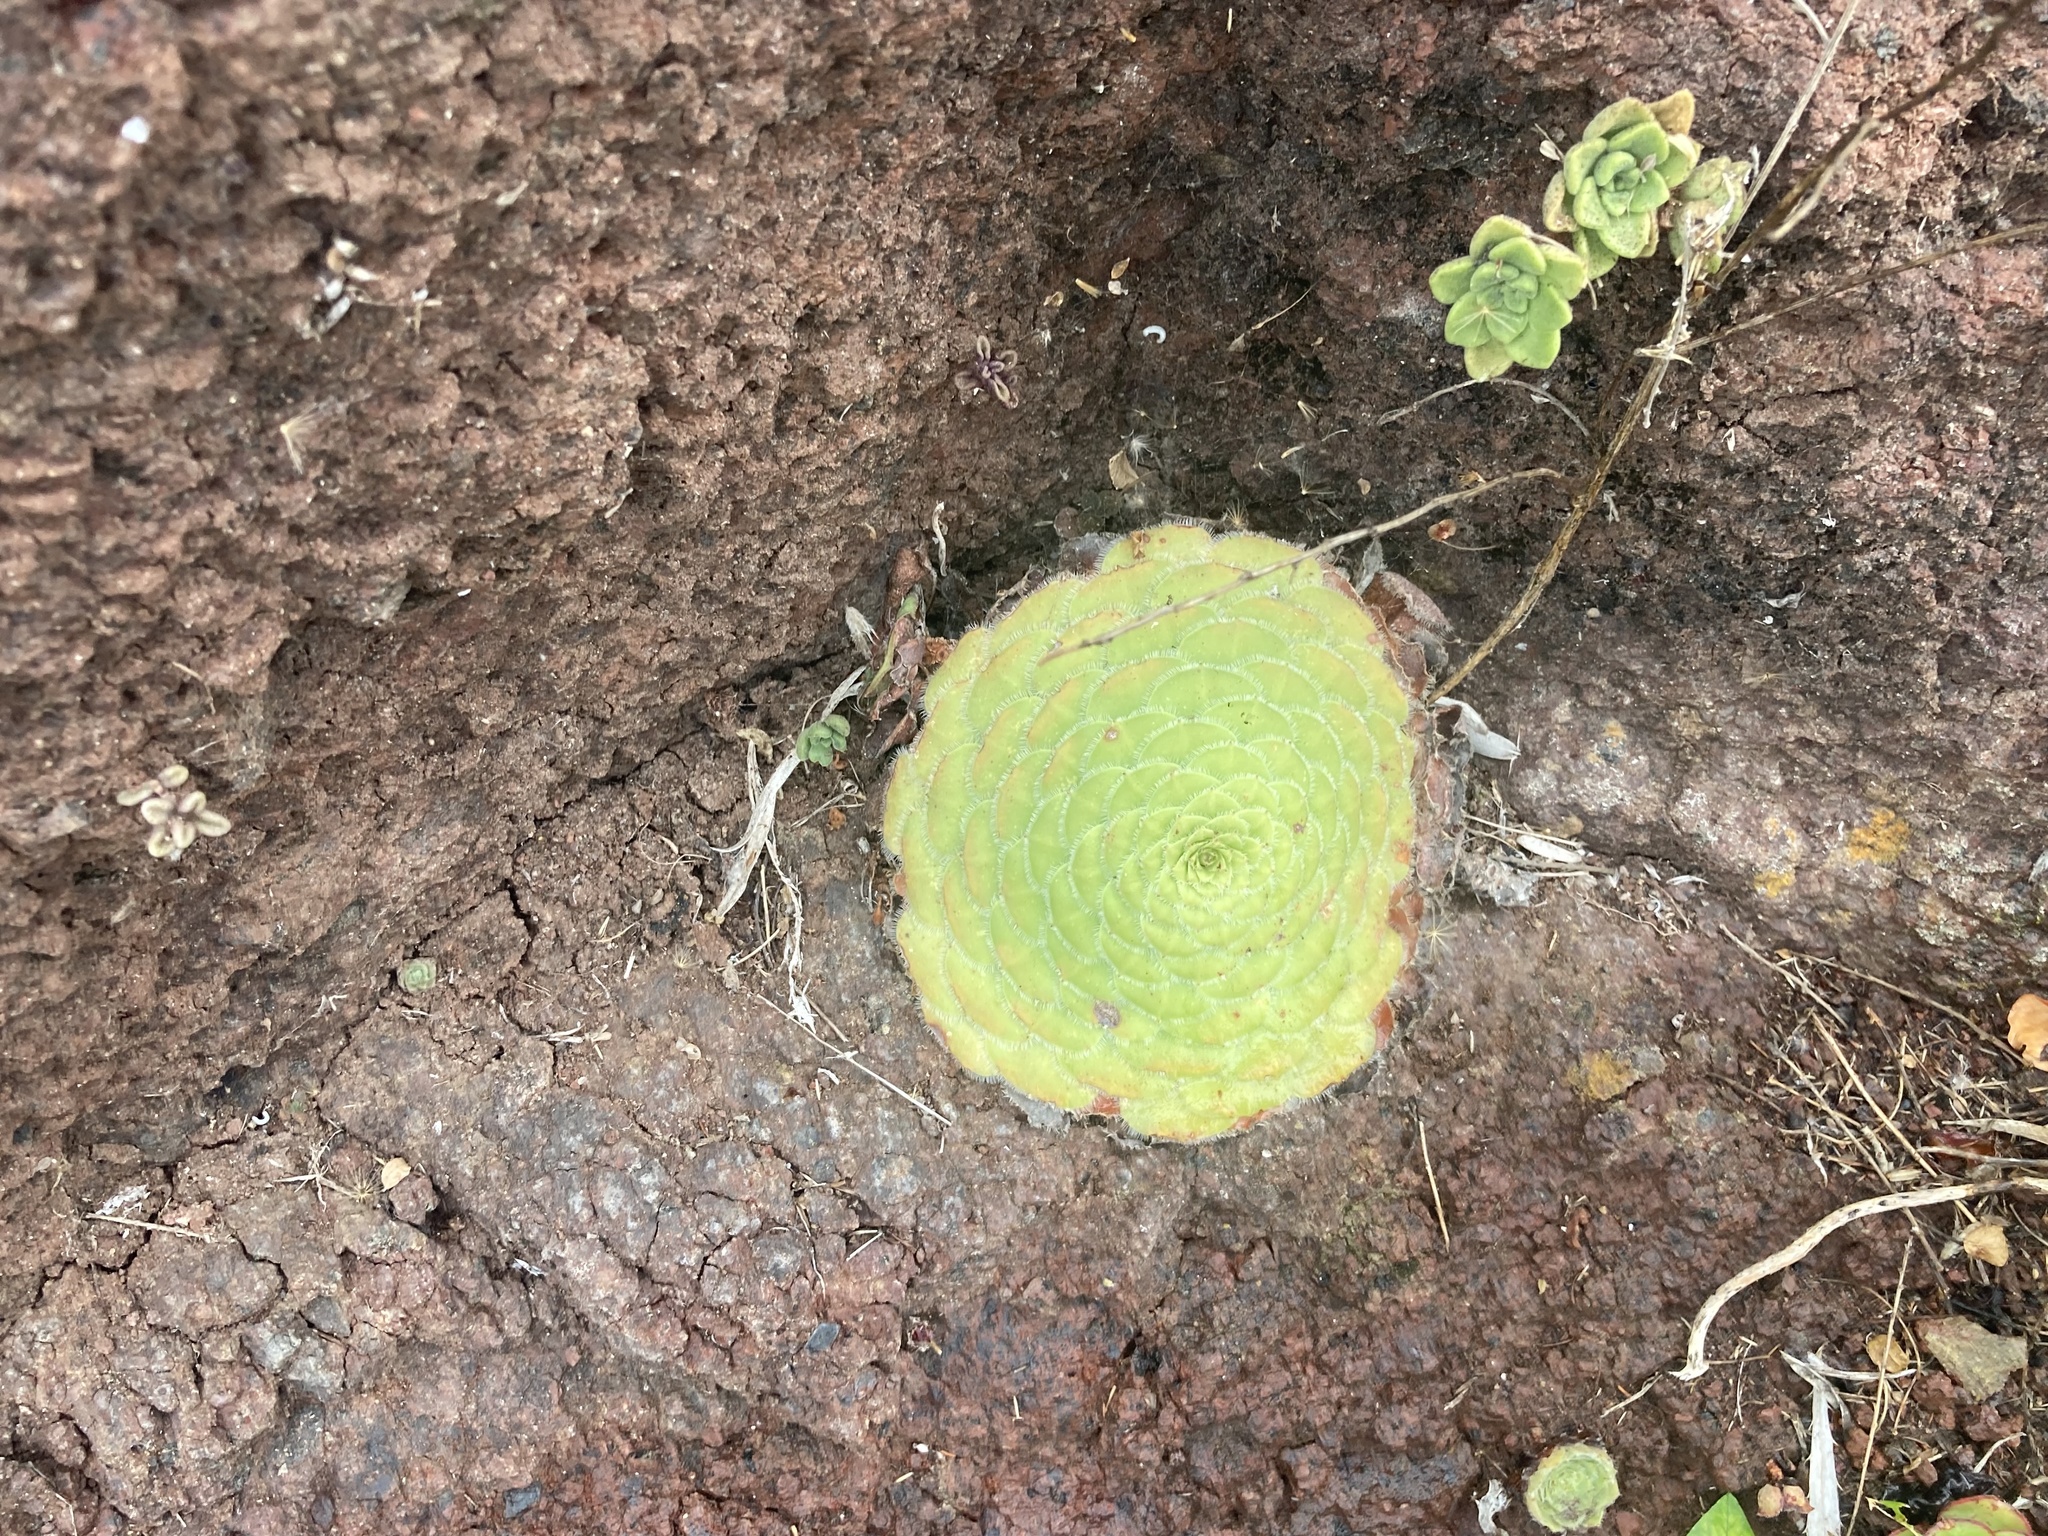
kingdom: Plantae
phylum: Tracheophyta
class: Magnoliopsida
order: Saxifragales
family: Crassulaceae
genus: Aeonium
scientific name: Aeonium tabulaeforme
